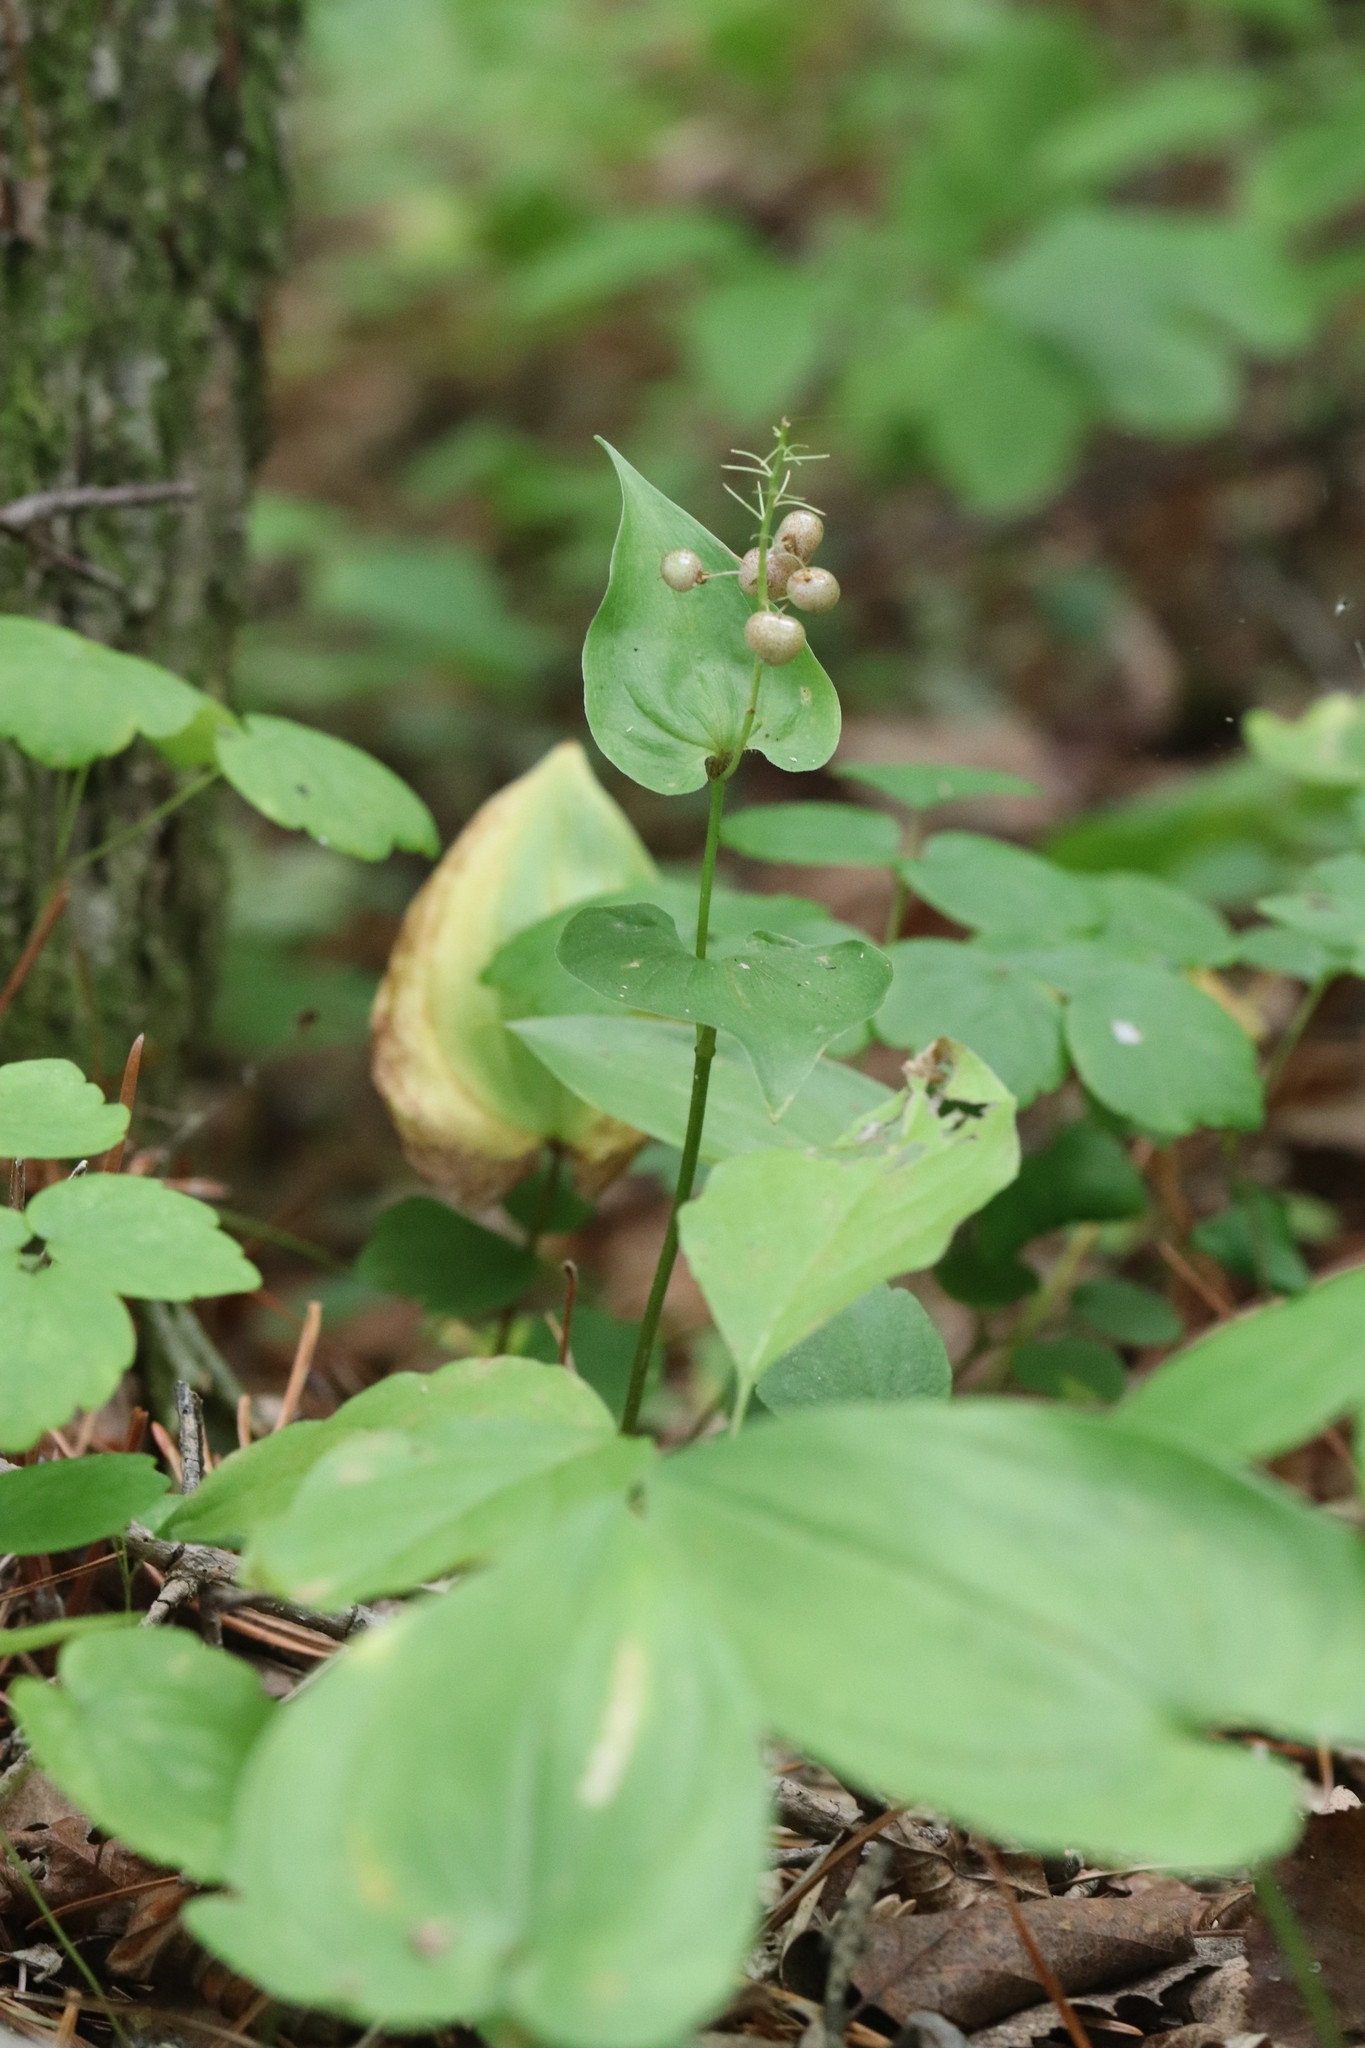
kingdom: Plantae
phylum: Tracheophyta
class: Liliopsida
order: Asparagales
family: Asparagaceae
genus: Maianthemum
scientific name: Maianthemum dilatatum
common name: False lily-of-the-valley
